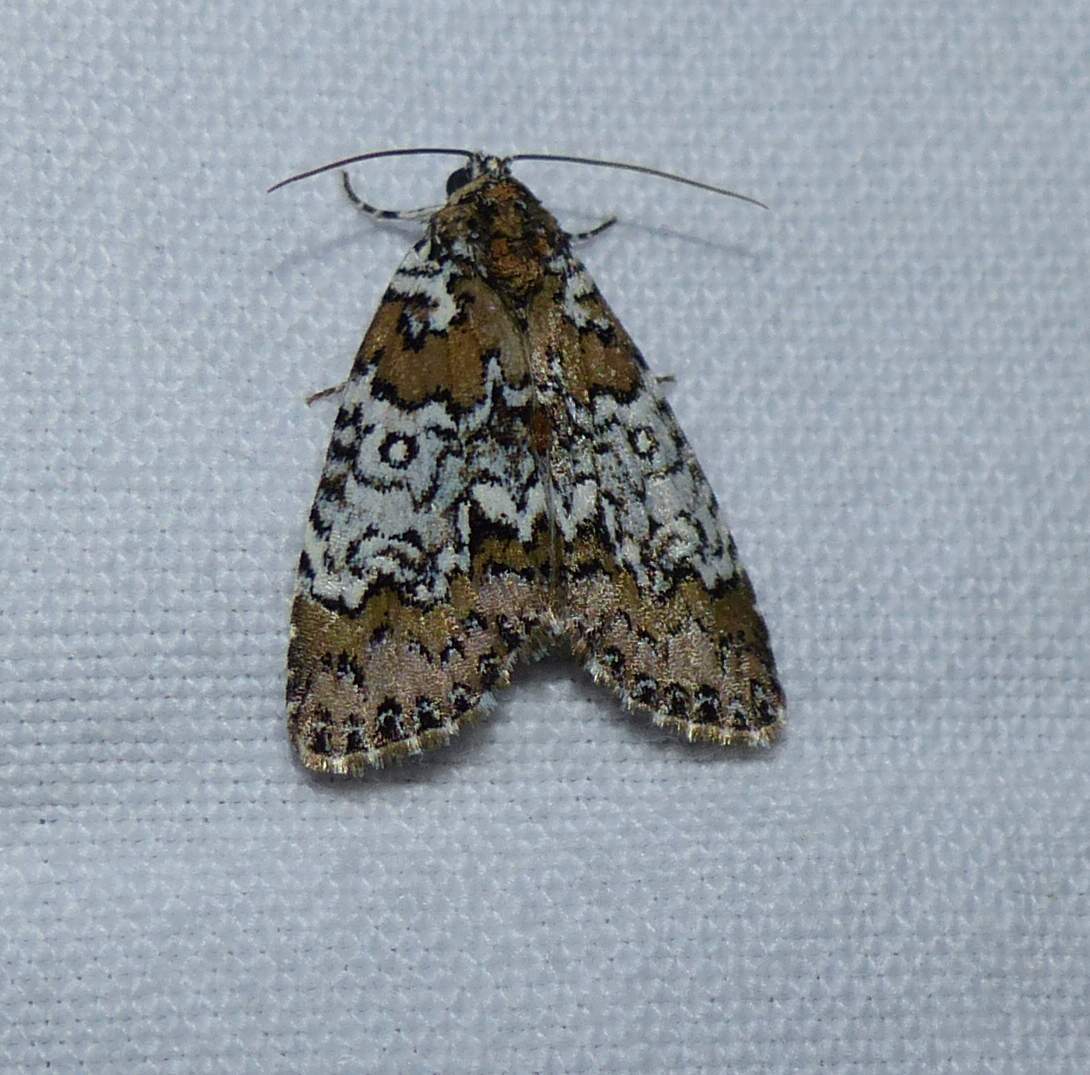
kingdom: Animalia
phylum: Arthropoda
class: Insecta
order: Lepidoptera
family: Noctuidae
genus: Cerma
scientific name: Cerma cora
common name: Bird dropping moth
